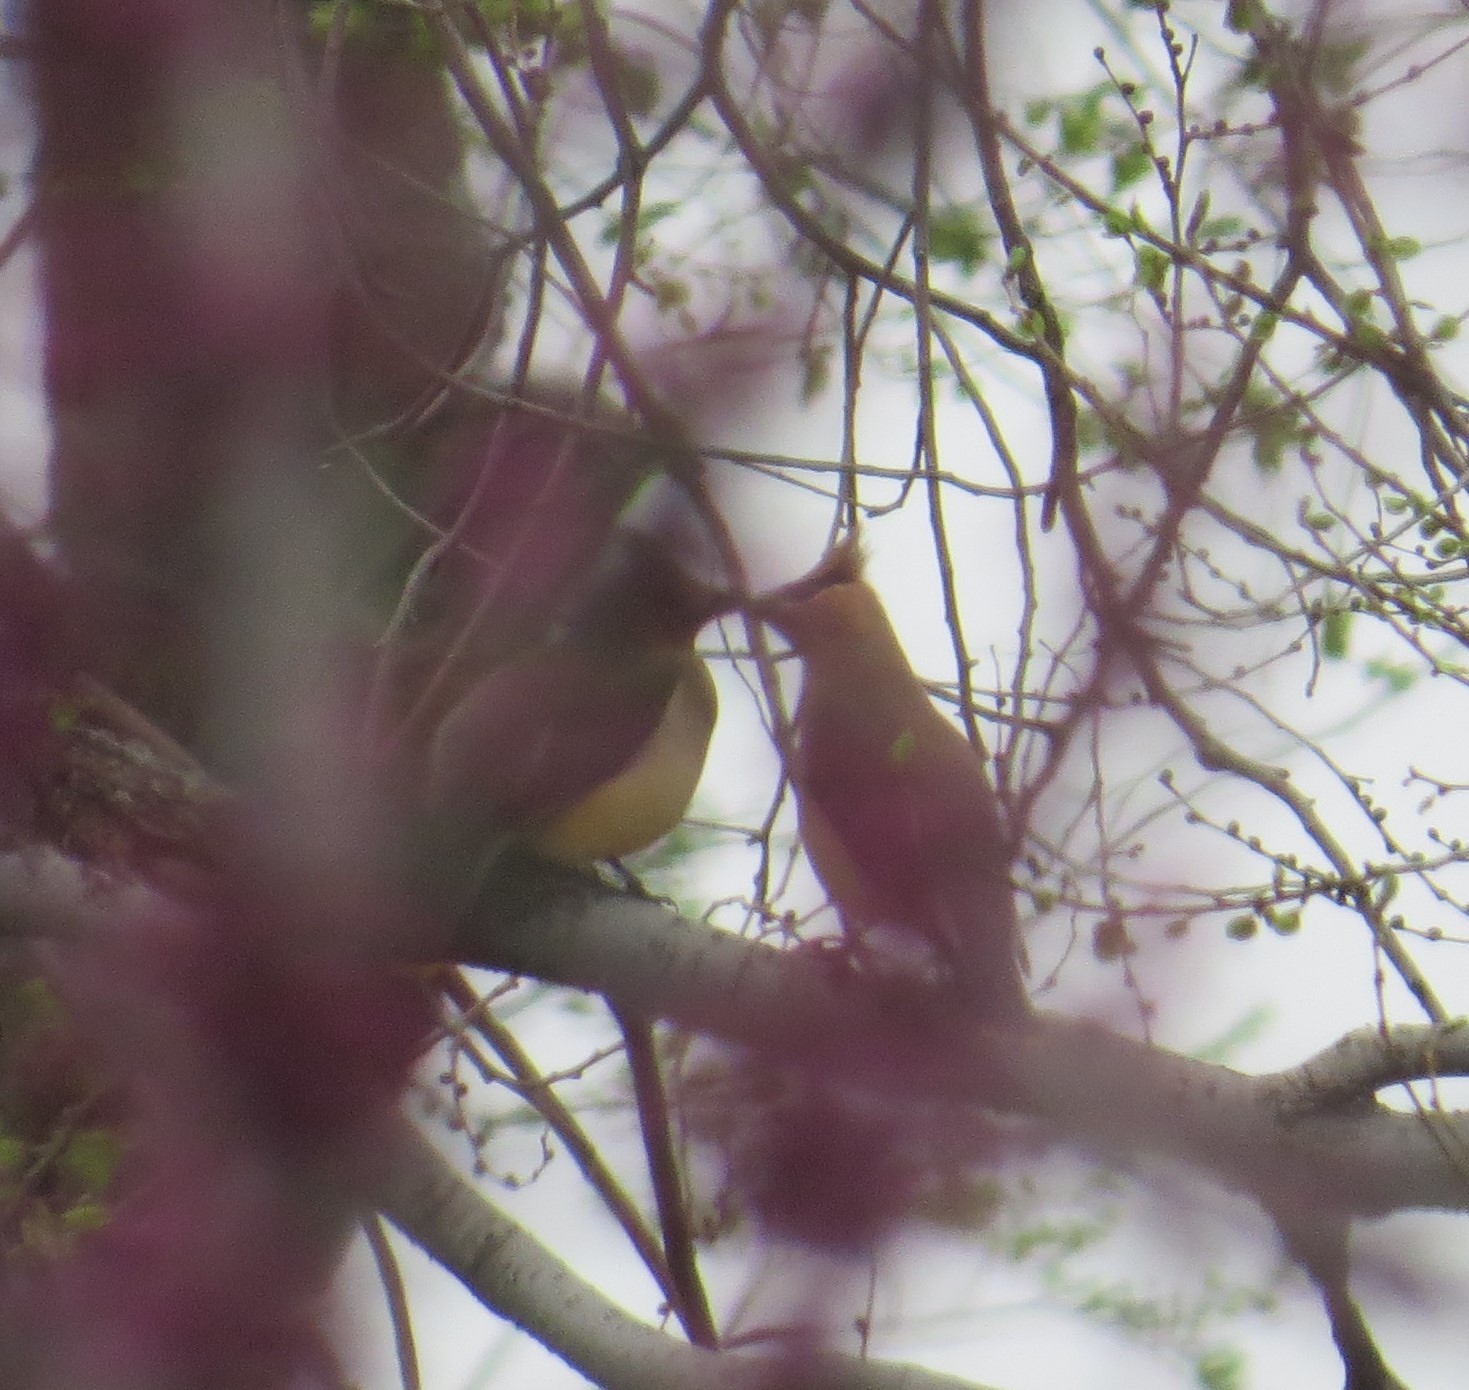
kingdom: Animalia
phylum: Chordata
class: Aves
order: Passeriformes
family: Bombycillidae
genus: Bombycilla
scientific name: Bombycilla cedrorum
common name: Cedar waxwing
